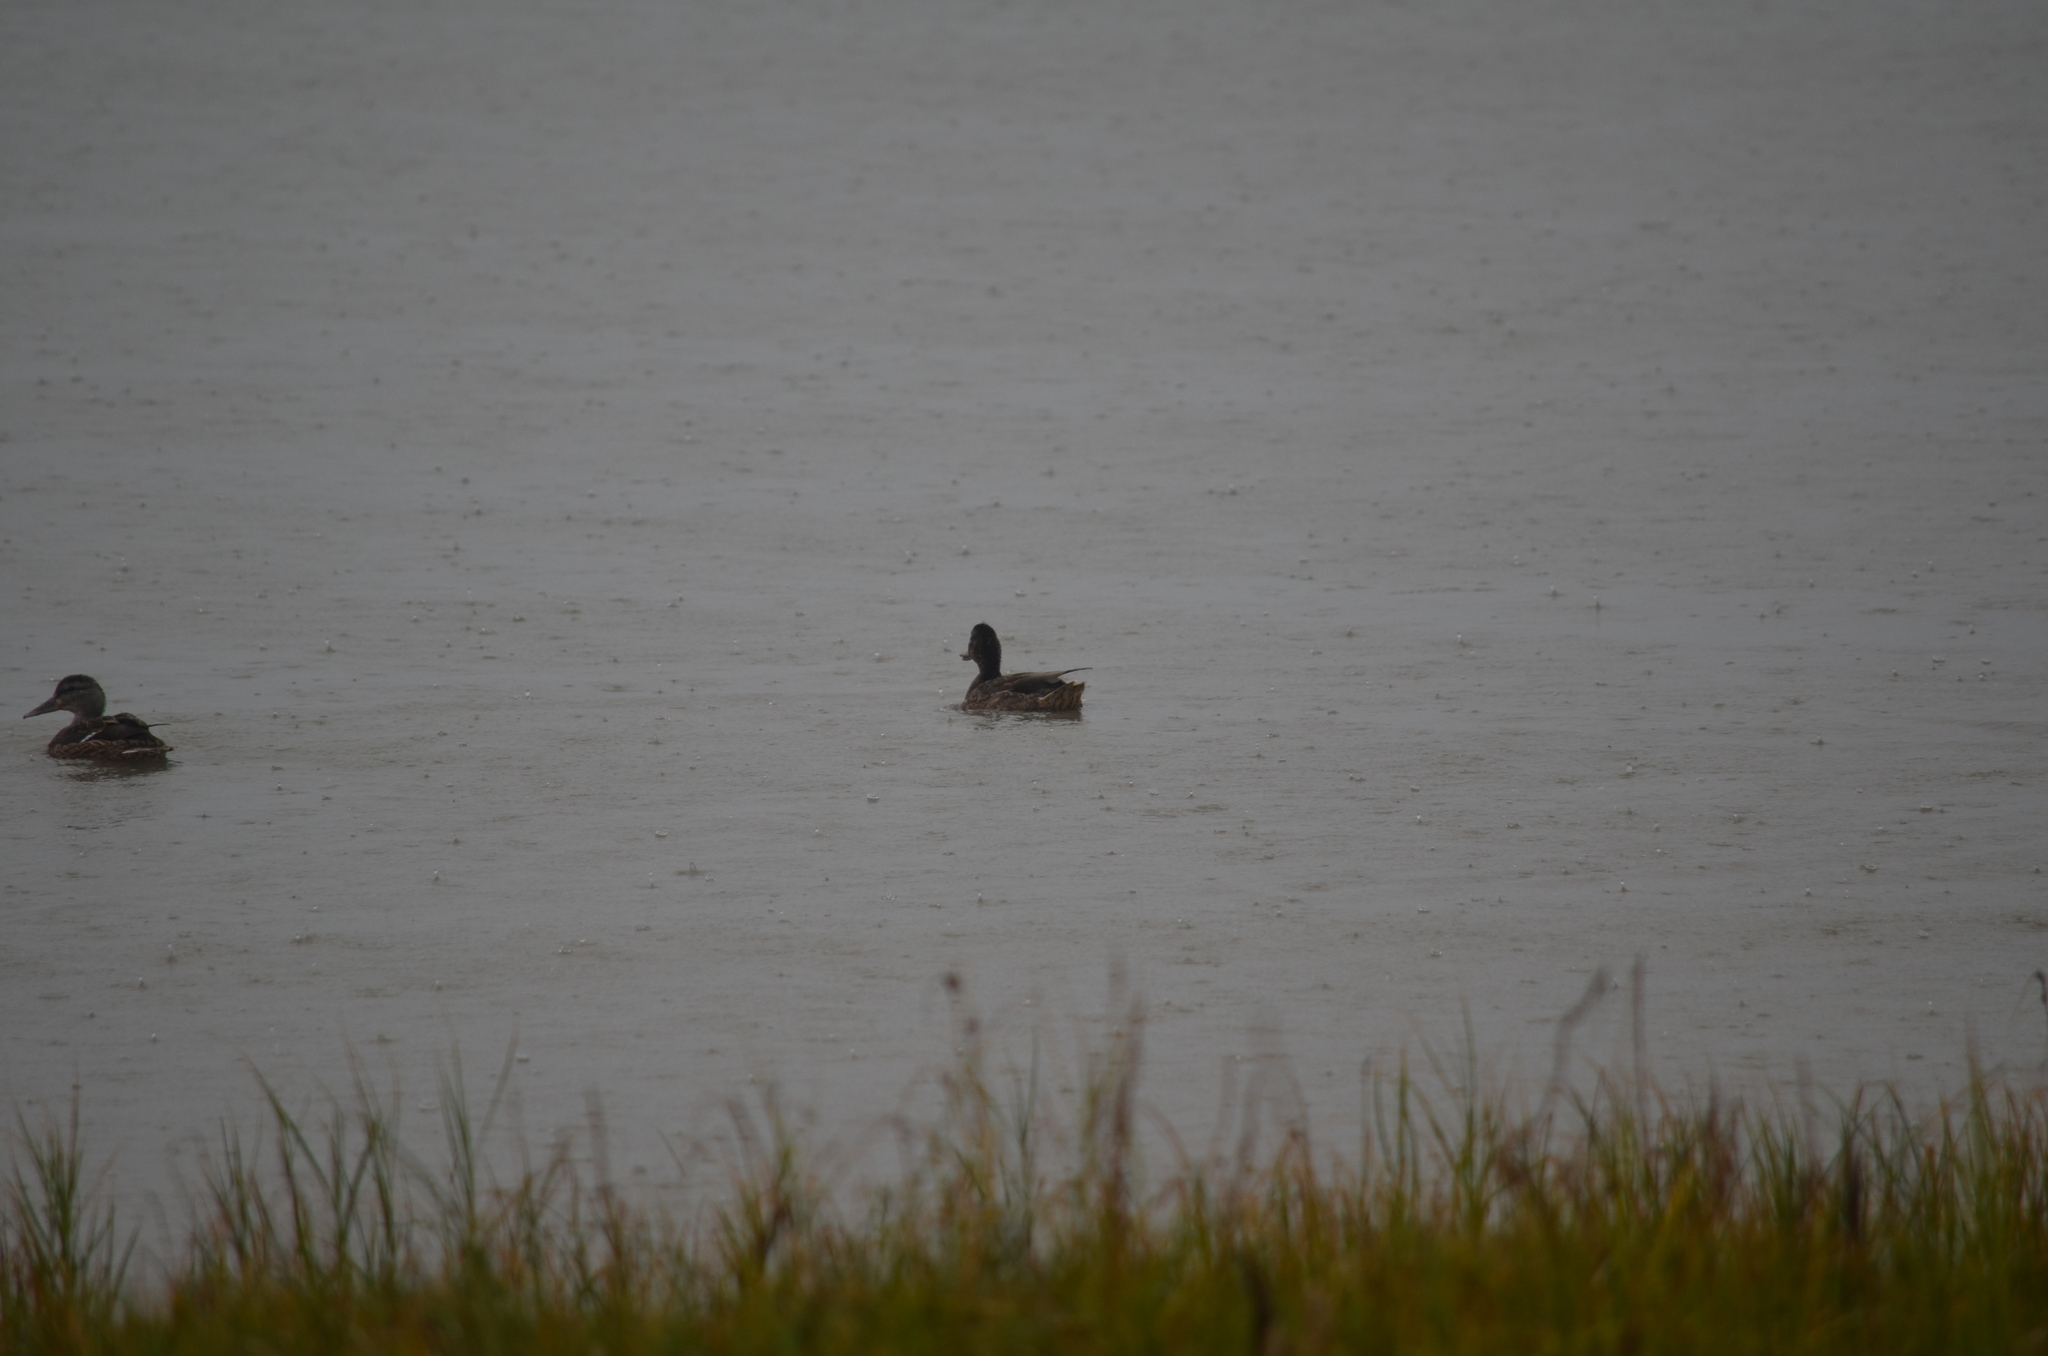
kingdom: Animalia
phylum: Chordata
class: Aves
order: Anseriformes
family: Anatidae
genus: Anas
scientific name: Anas platyrhynchos
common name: Mallard
